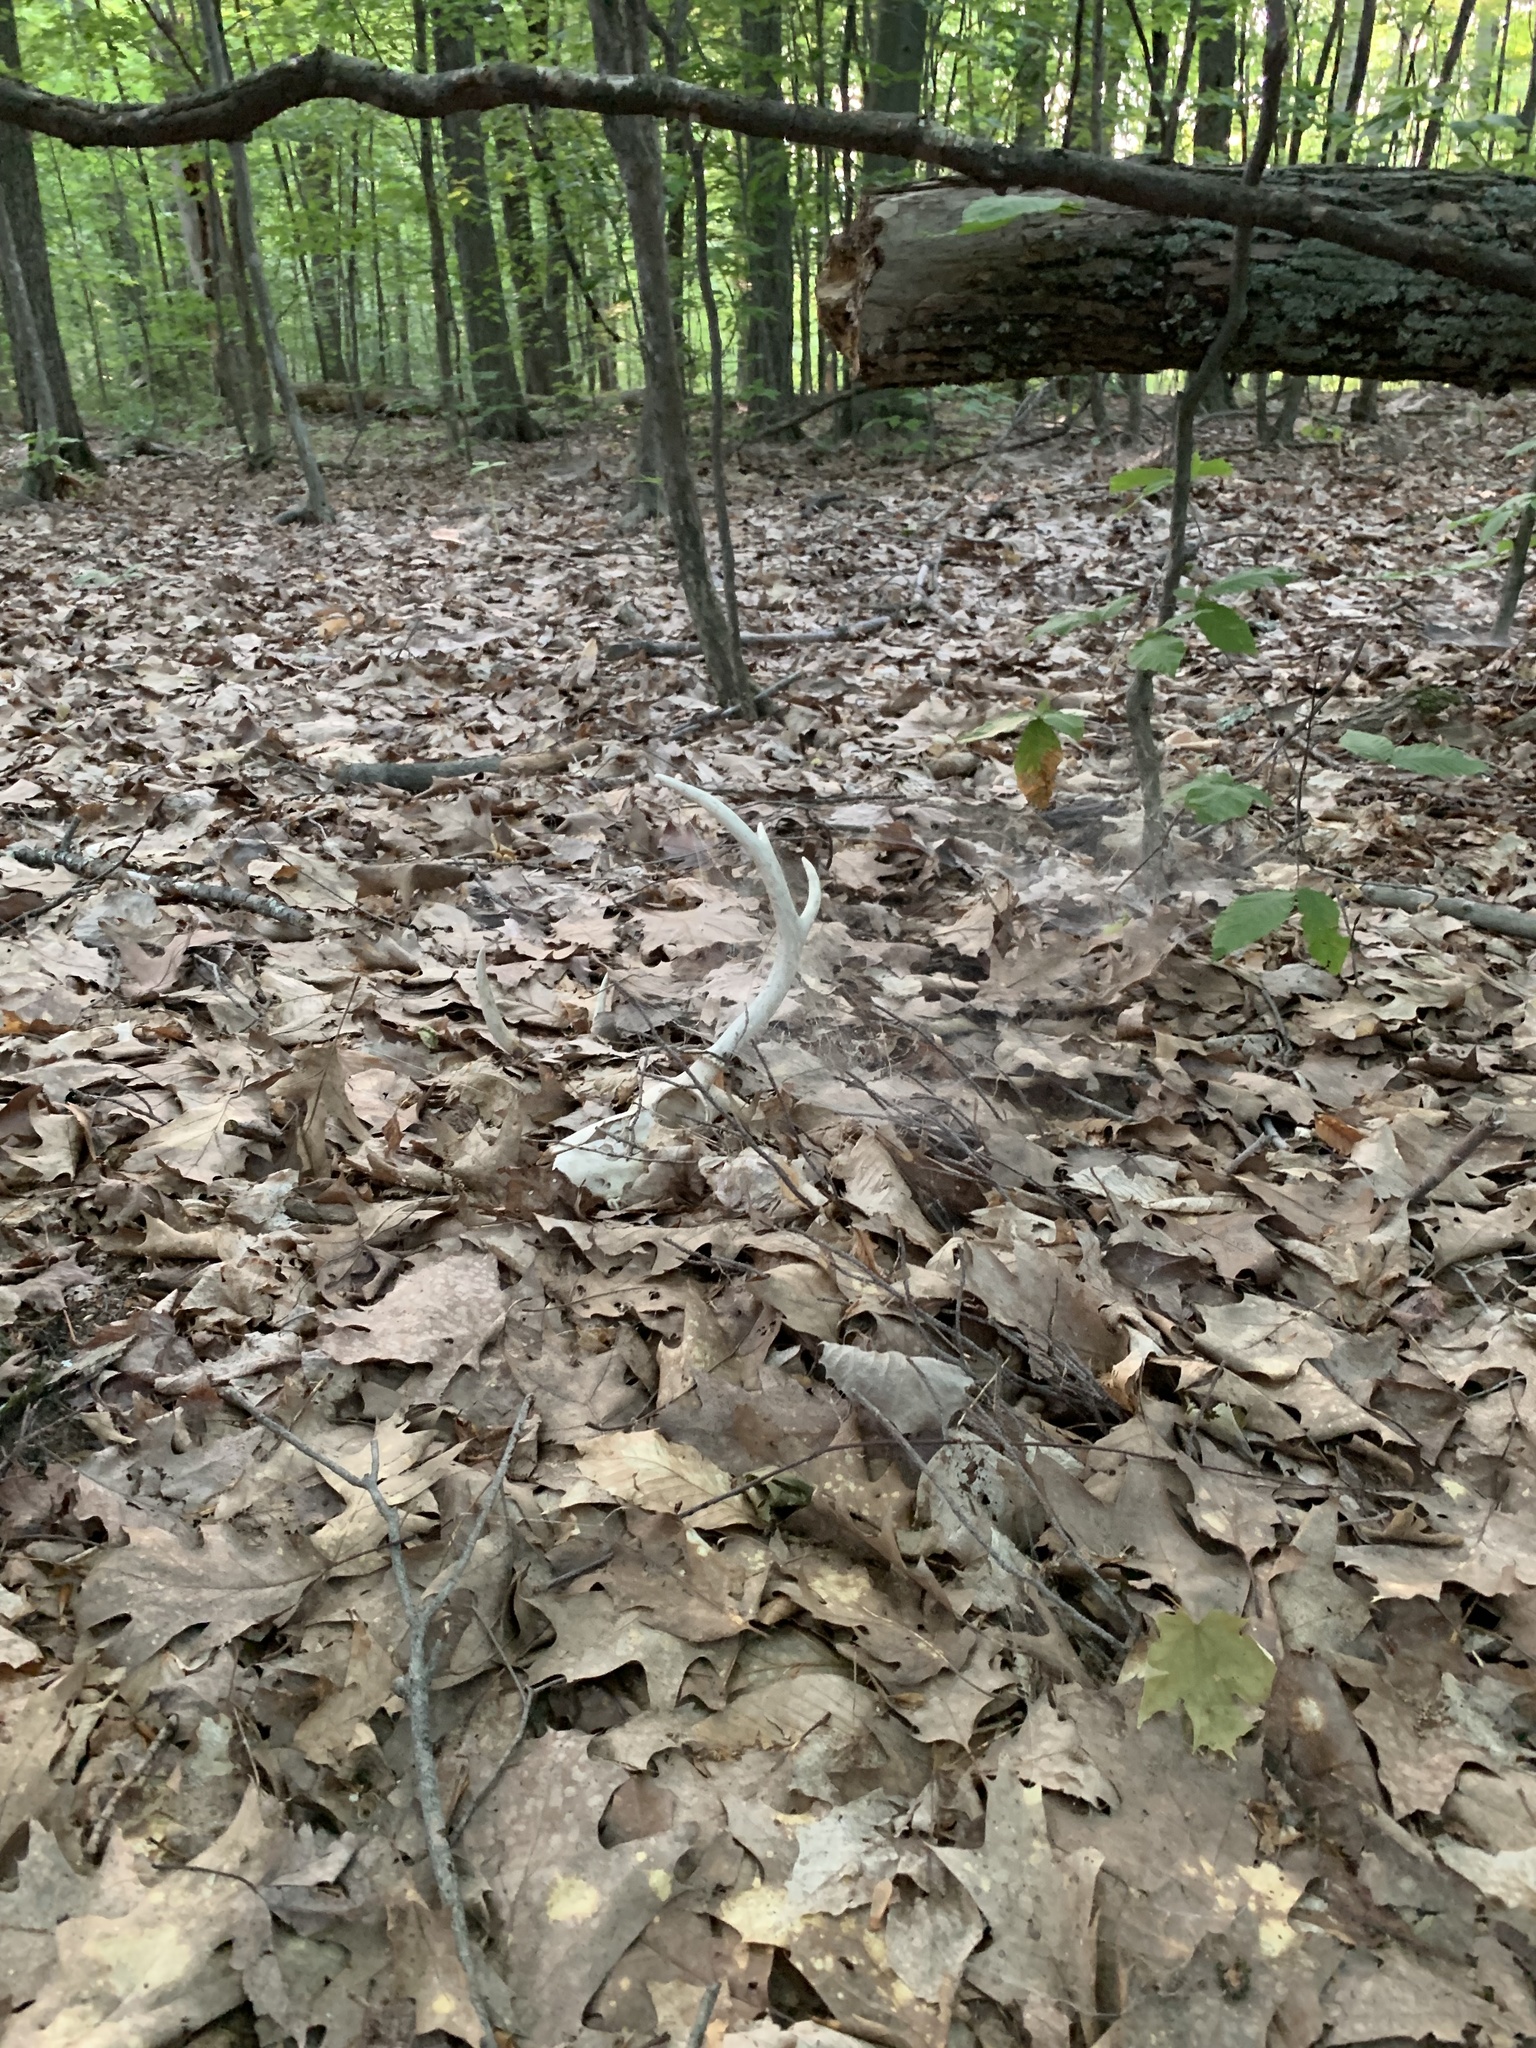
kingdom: Animalia
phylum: Chordata
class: Mammalia
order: Artiodactyla
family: Cervidae
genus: Odocoileus
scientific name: Odocoileus virginianus
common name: White-tailed deer
